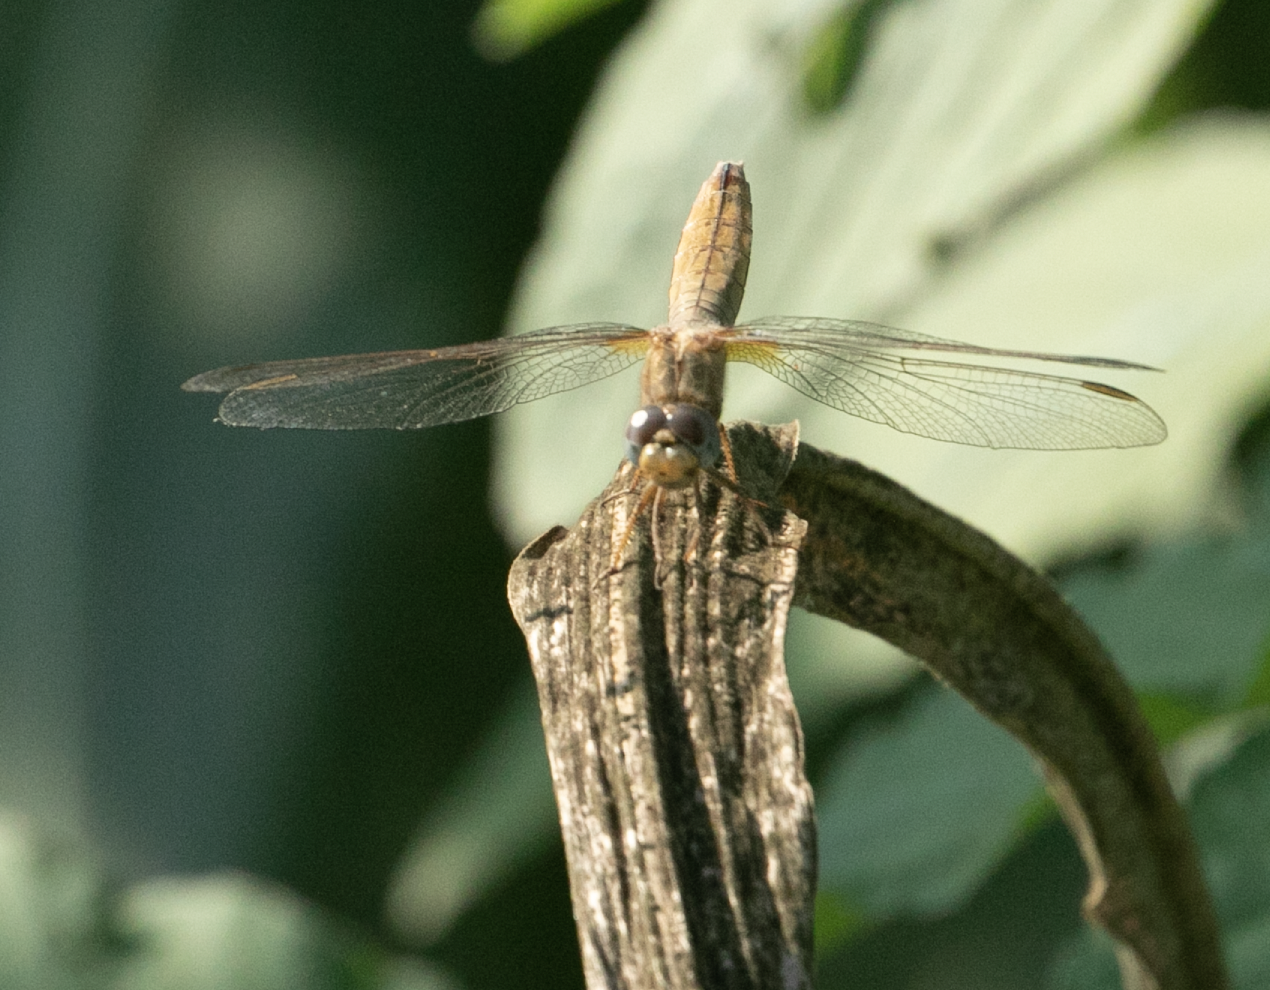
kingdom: Animalia
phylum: Arthropoda
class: Insecta
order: Odonata
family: Libellulidae
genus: Crocothemis
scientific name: Crocothemis erythraea
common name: Scarlet dragonfly
